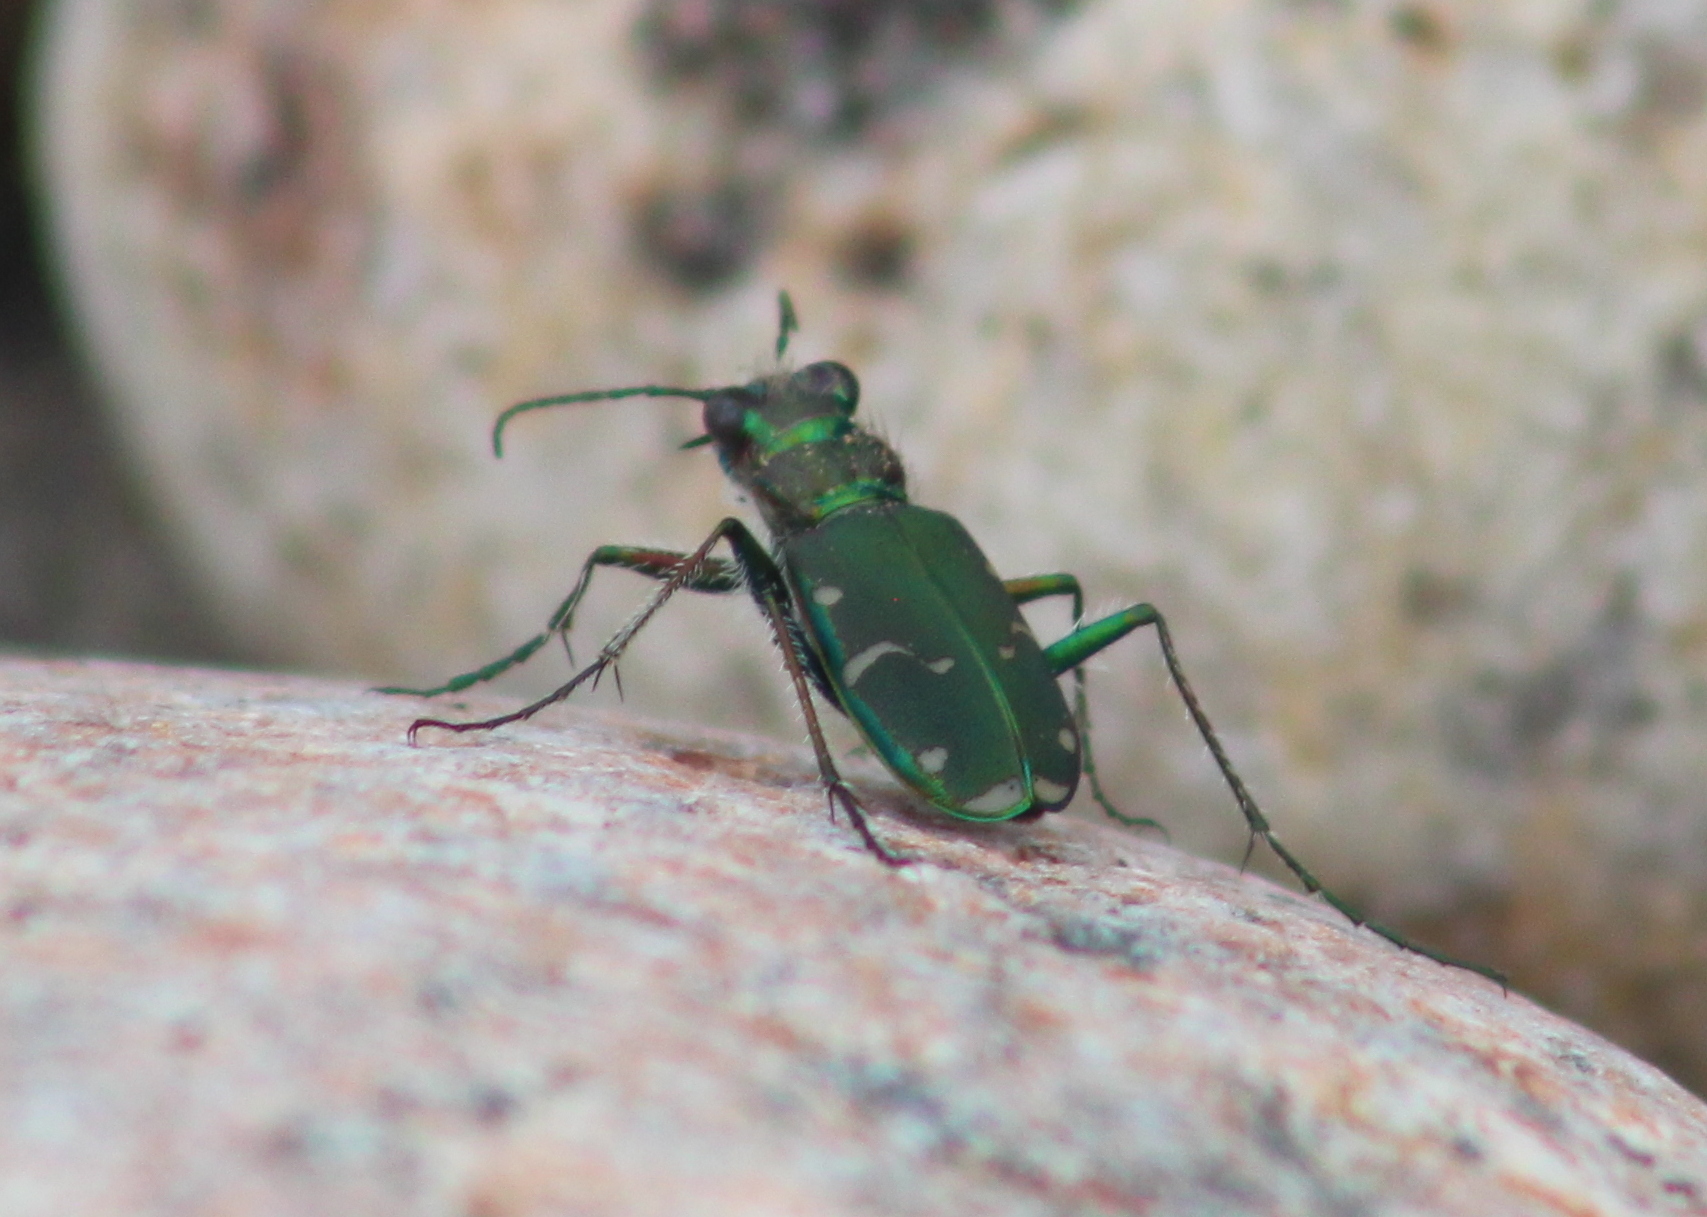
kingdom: Animalia
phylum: Arthropoda
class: Insecta
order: Coleoptera
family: Carabidae
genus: Cicindela
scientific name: Cicindela limbalis
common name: Common claybank tiger beetle
